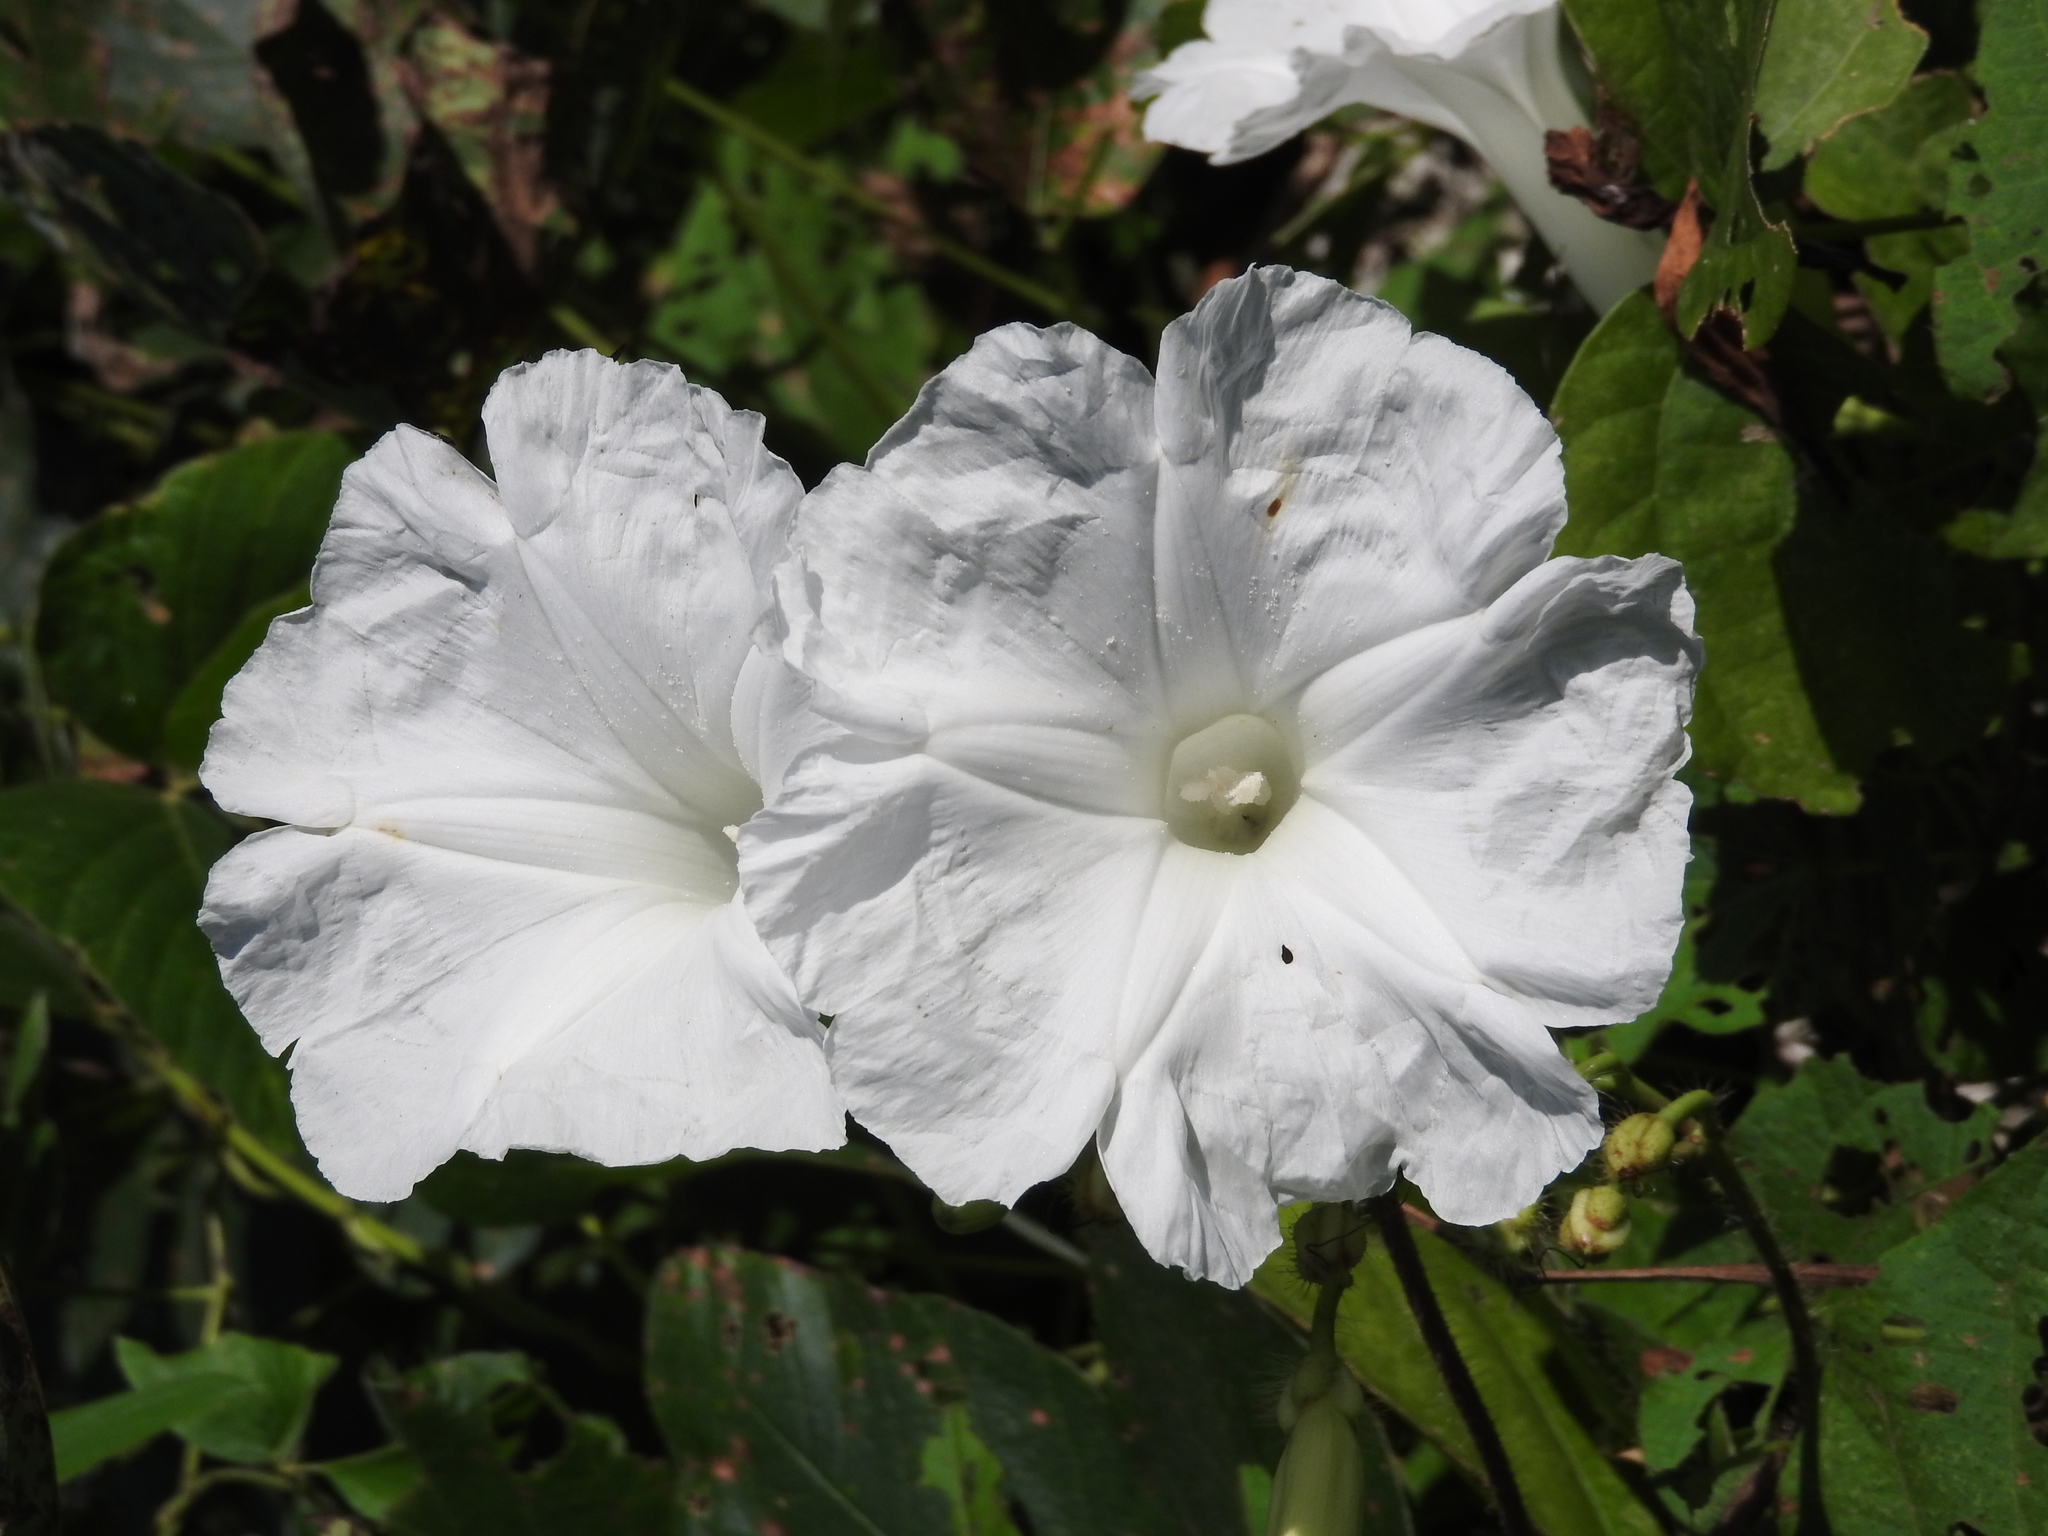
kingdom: Plantae
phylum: Tracheophyta
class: Magnoliopsida
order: Solanales
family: Convolvulaceae
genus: Ipomoea
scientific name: Ipomoea suaveolens
